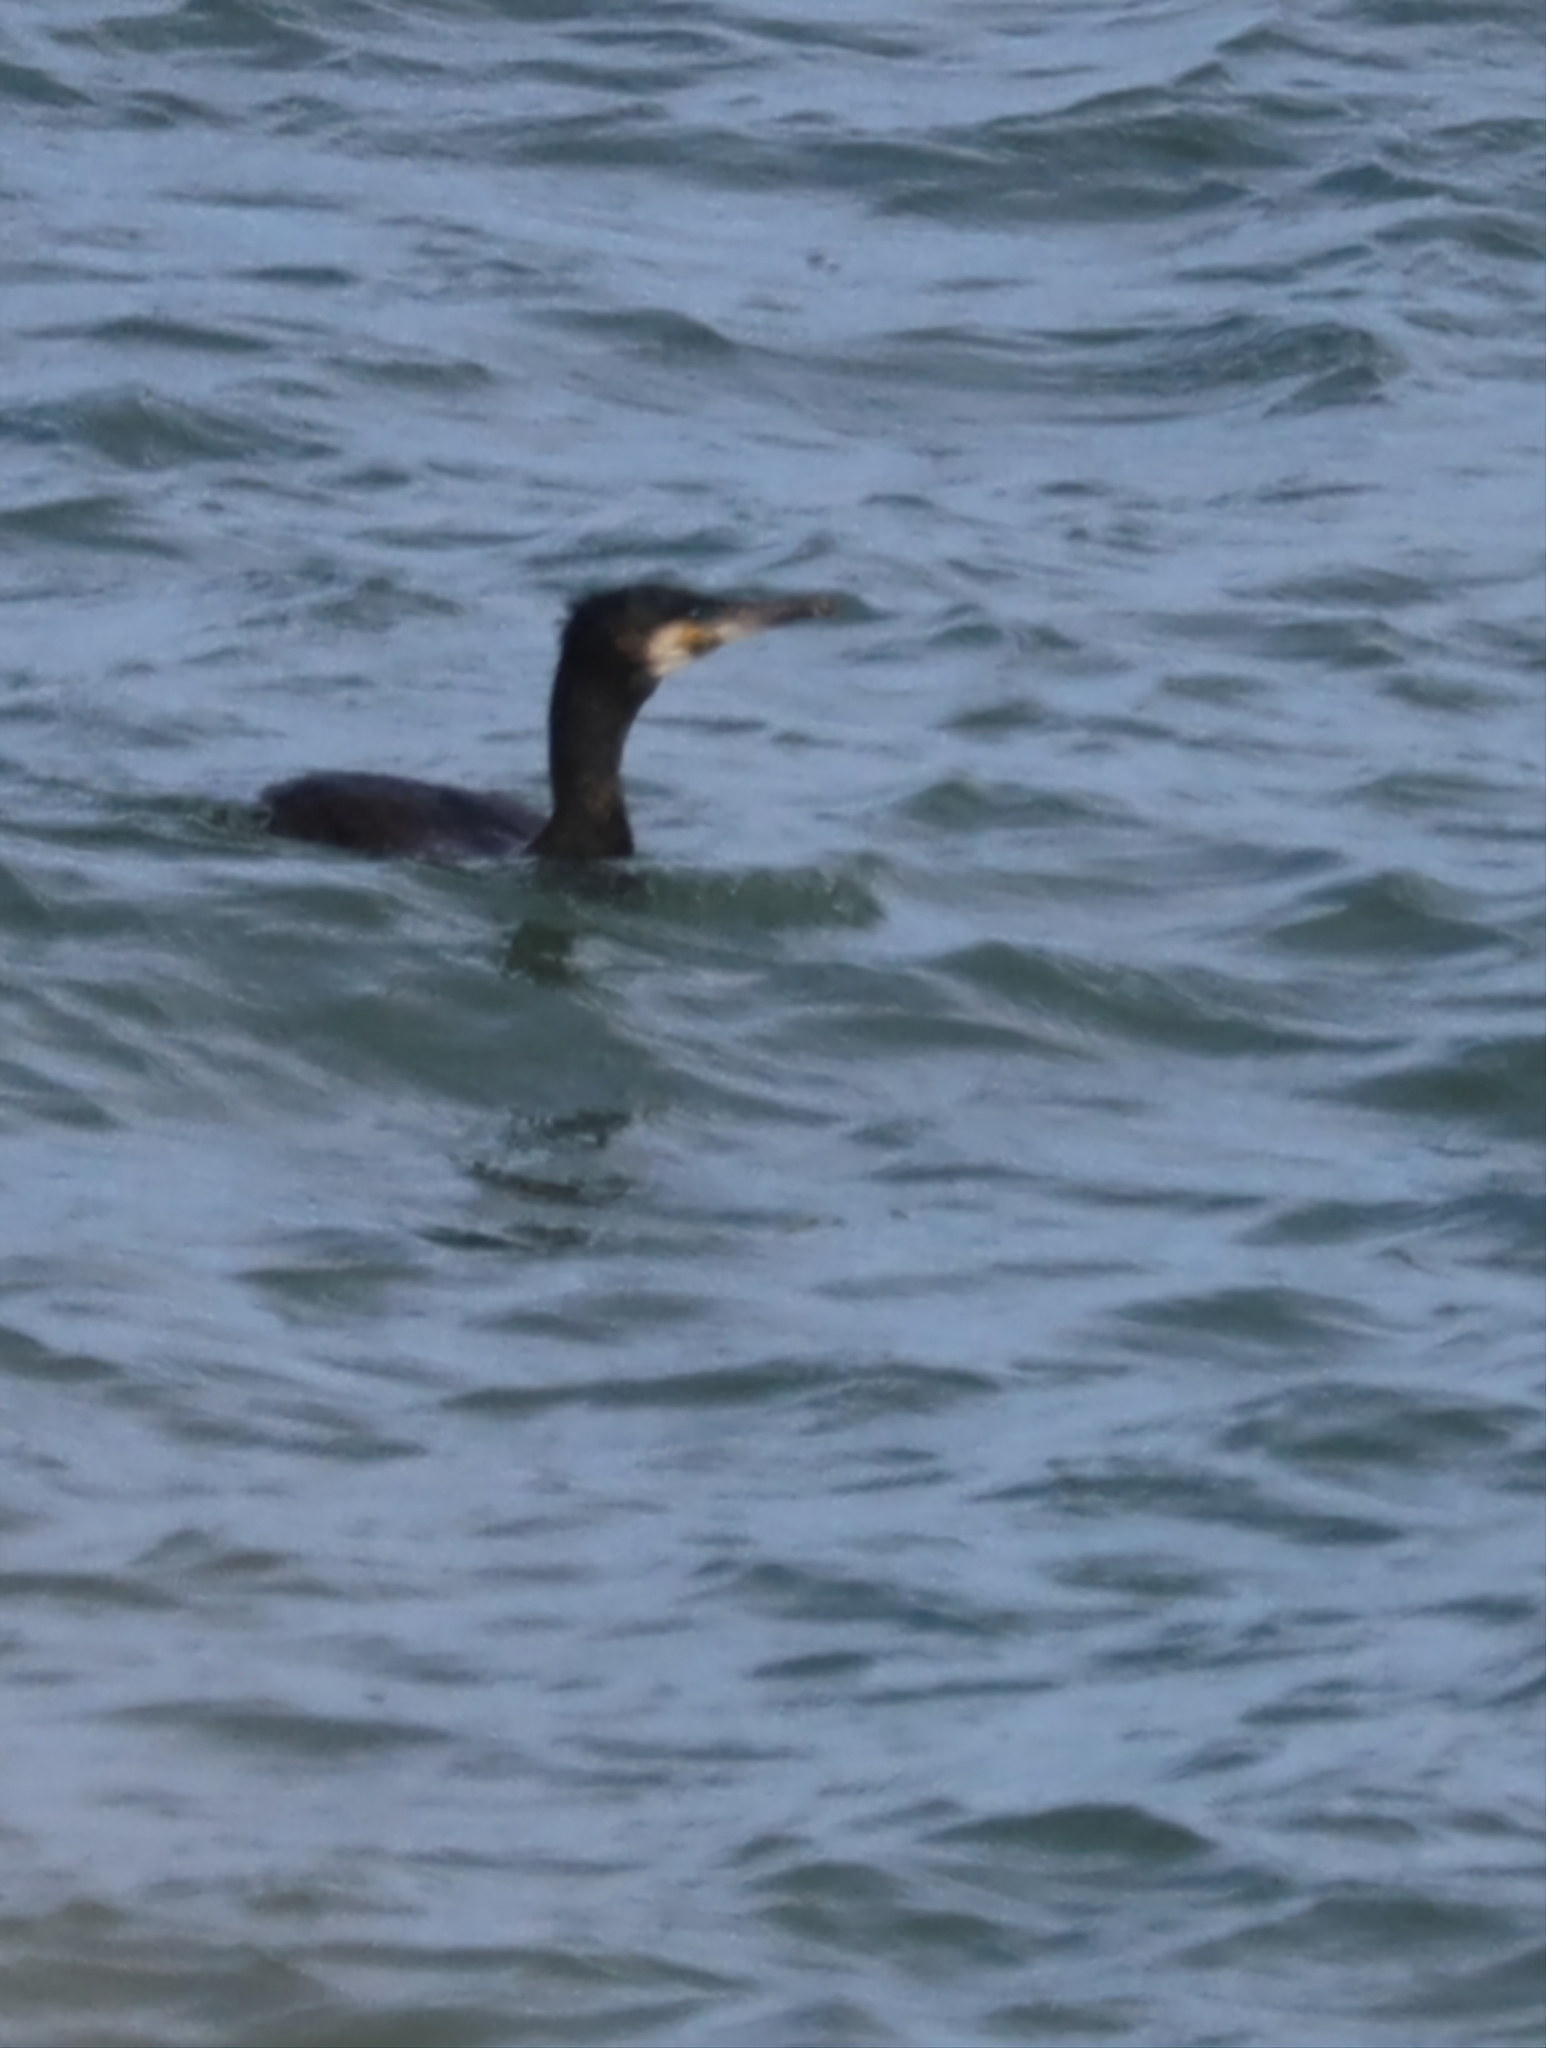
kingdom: Animalia
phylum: Chordata
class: Aves
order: Suliformes
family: Phalacrocoracidae
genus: Phalacrocorax
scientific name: Phalacrocorax carbo
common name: Great cormorant
